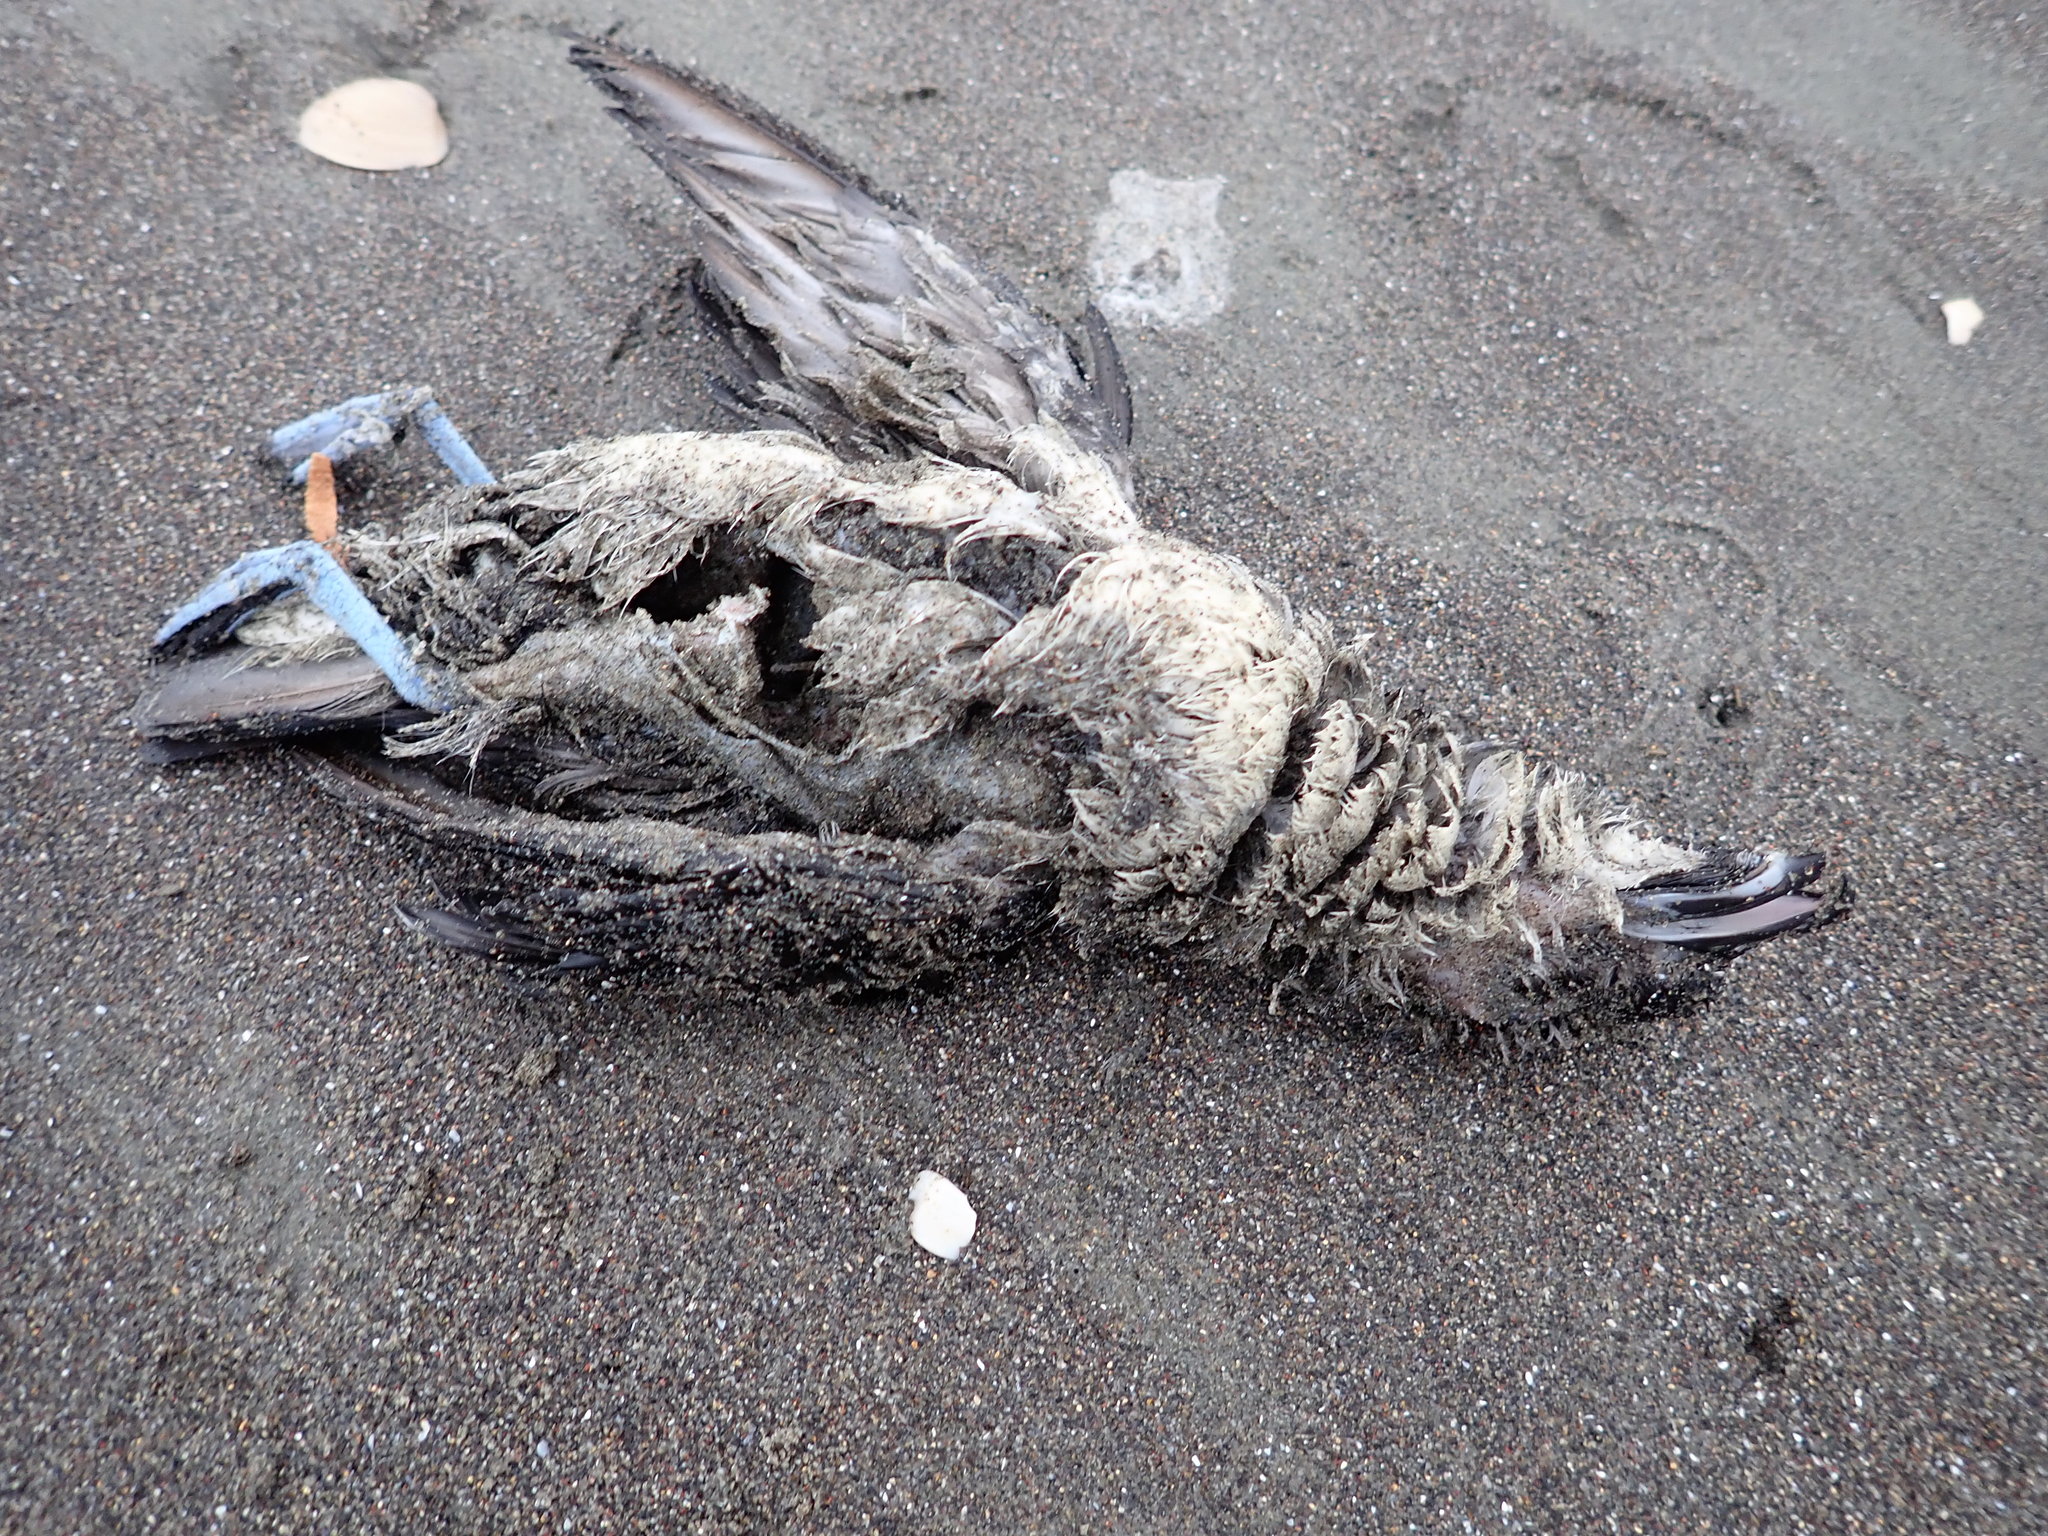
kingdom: Animalia
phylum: Chordata
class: Aves
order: Procellariiformes
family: Pelecanoididae
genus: Pelecanoides
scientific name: Pelecanoides urinatrix
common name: Common diving-petrel
